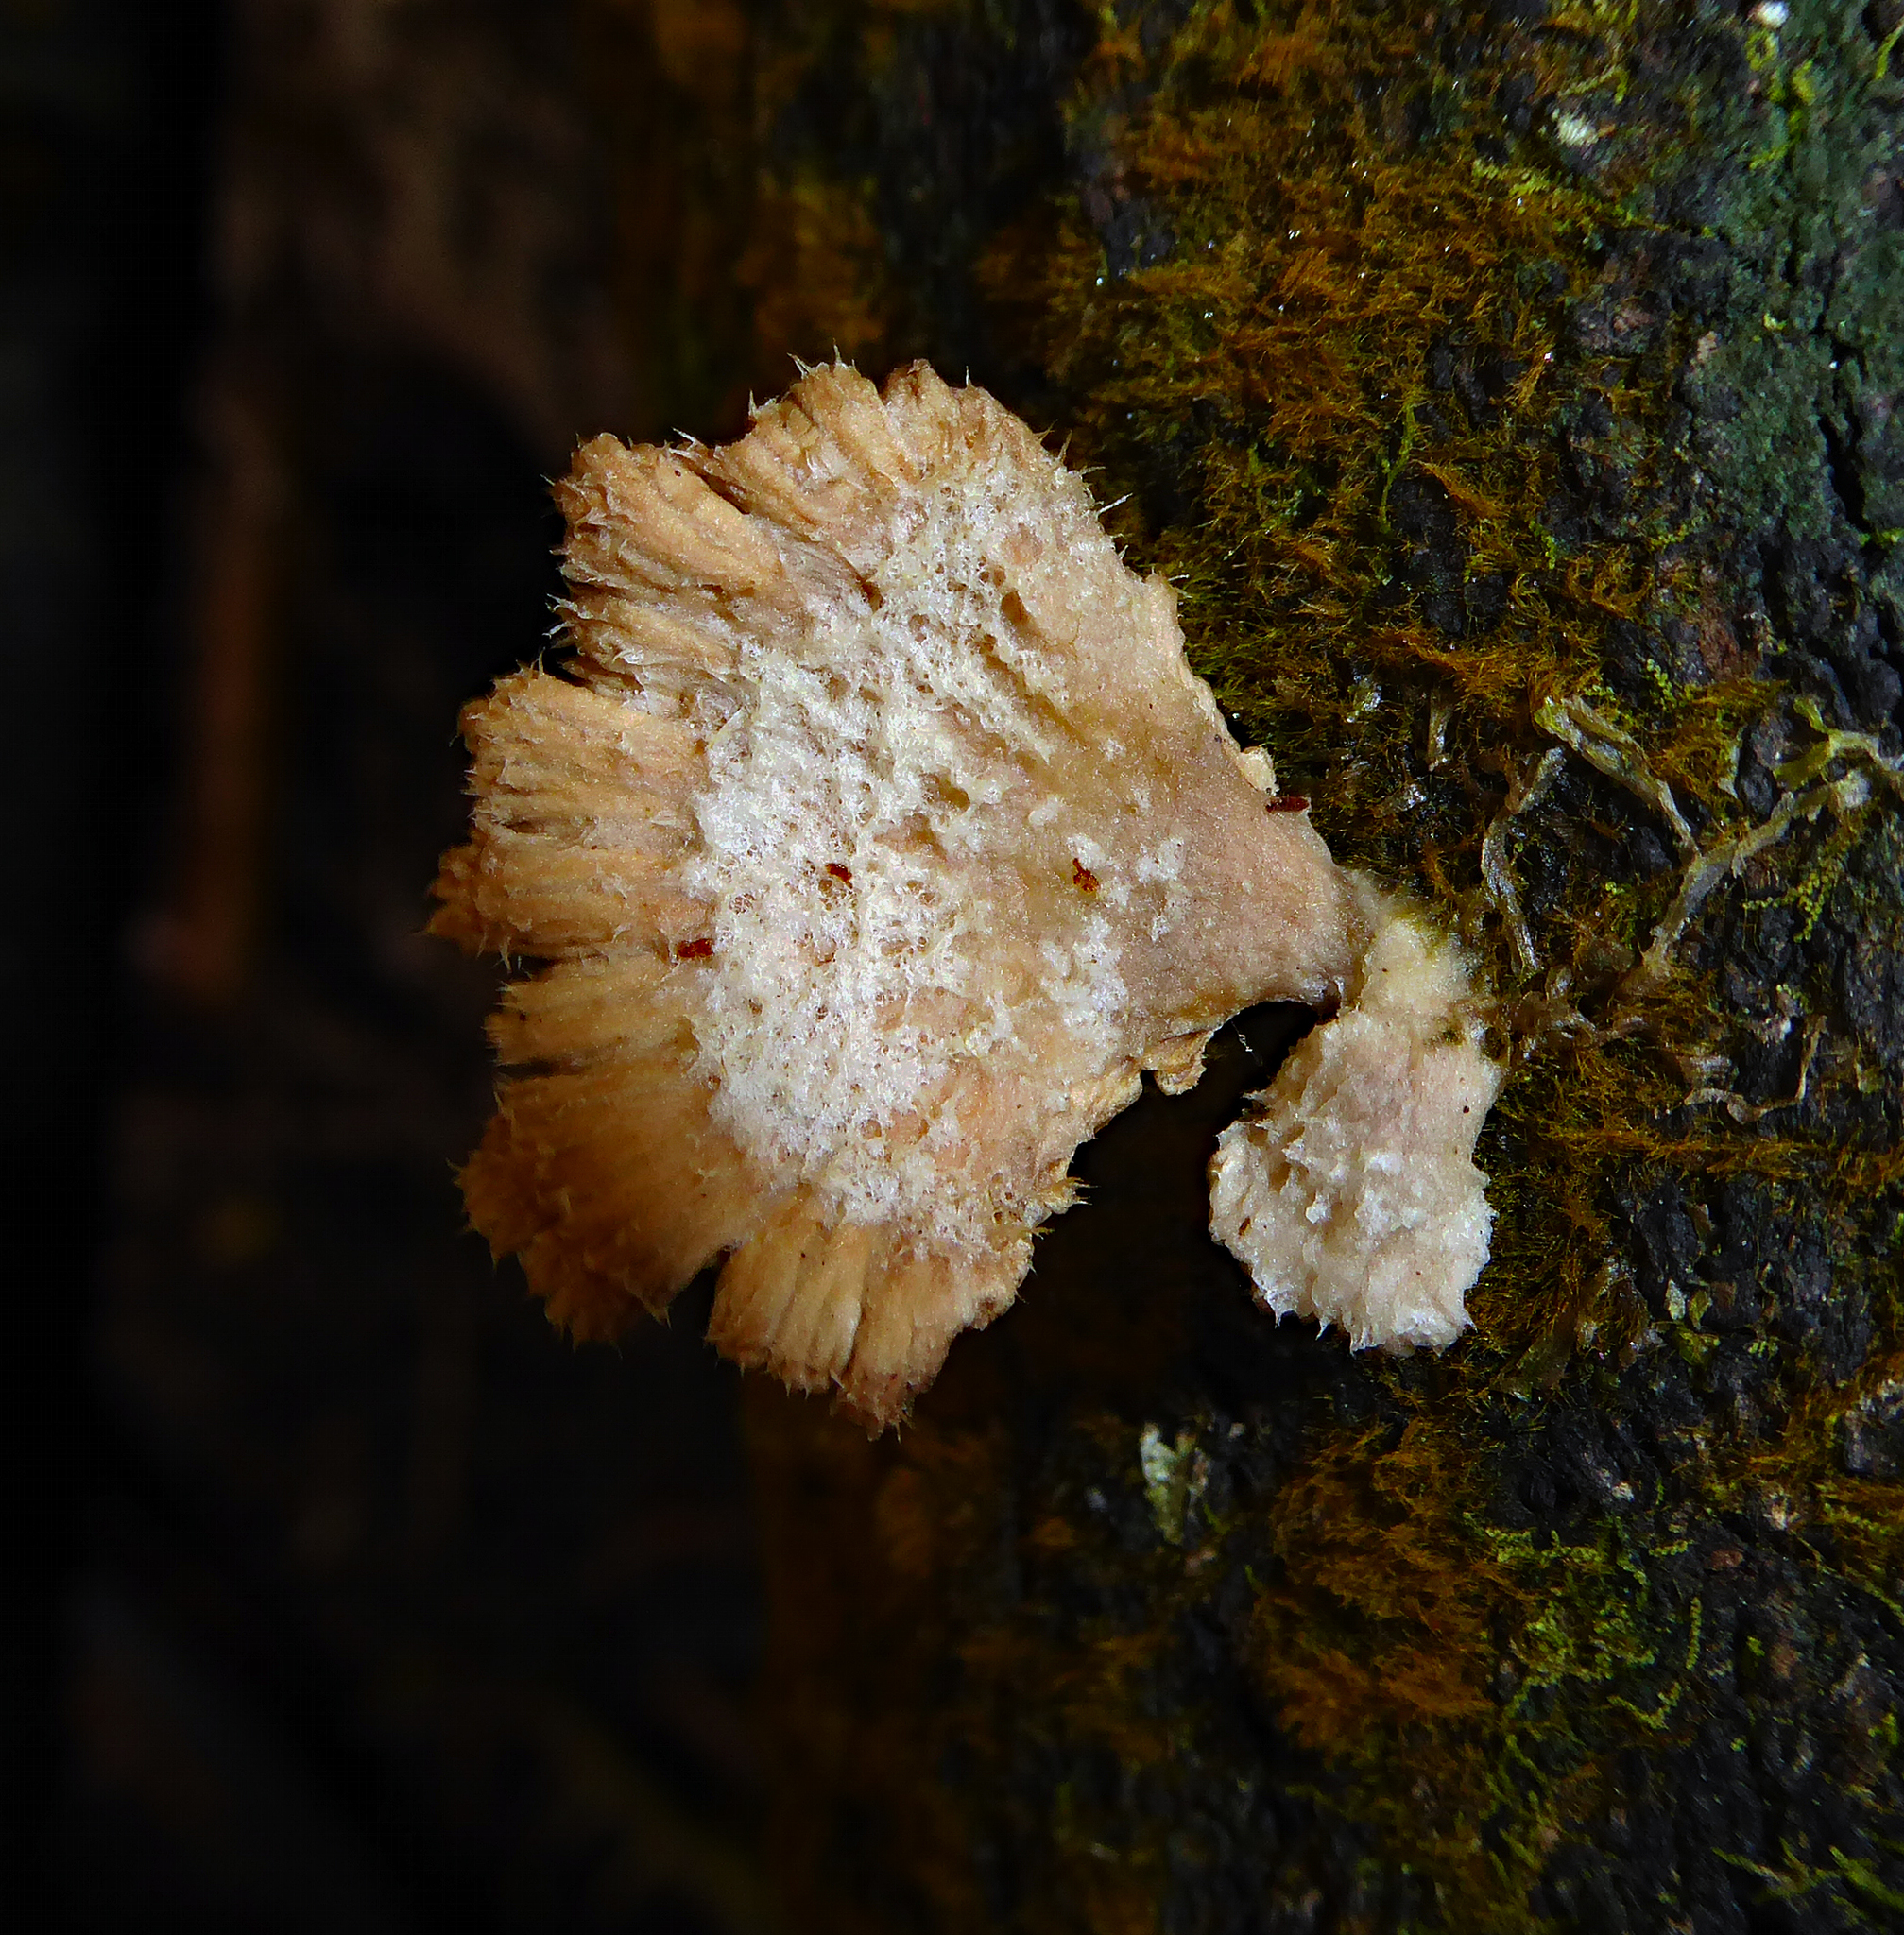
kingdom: Fungi
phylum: Basidiomycota
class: Agaricomycetes
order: Agaricales
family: Schizophyllaceae
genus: Schizophyllum
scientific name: Schizophyllum commune
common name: Common porecrust
